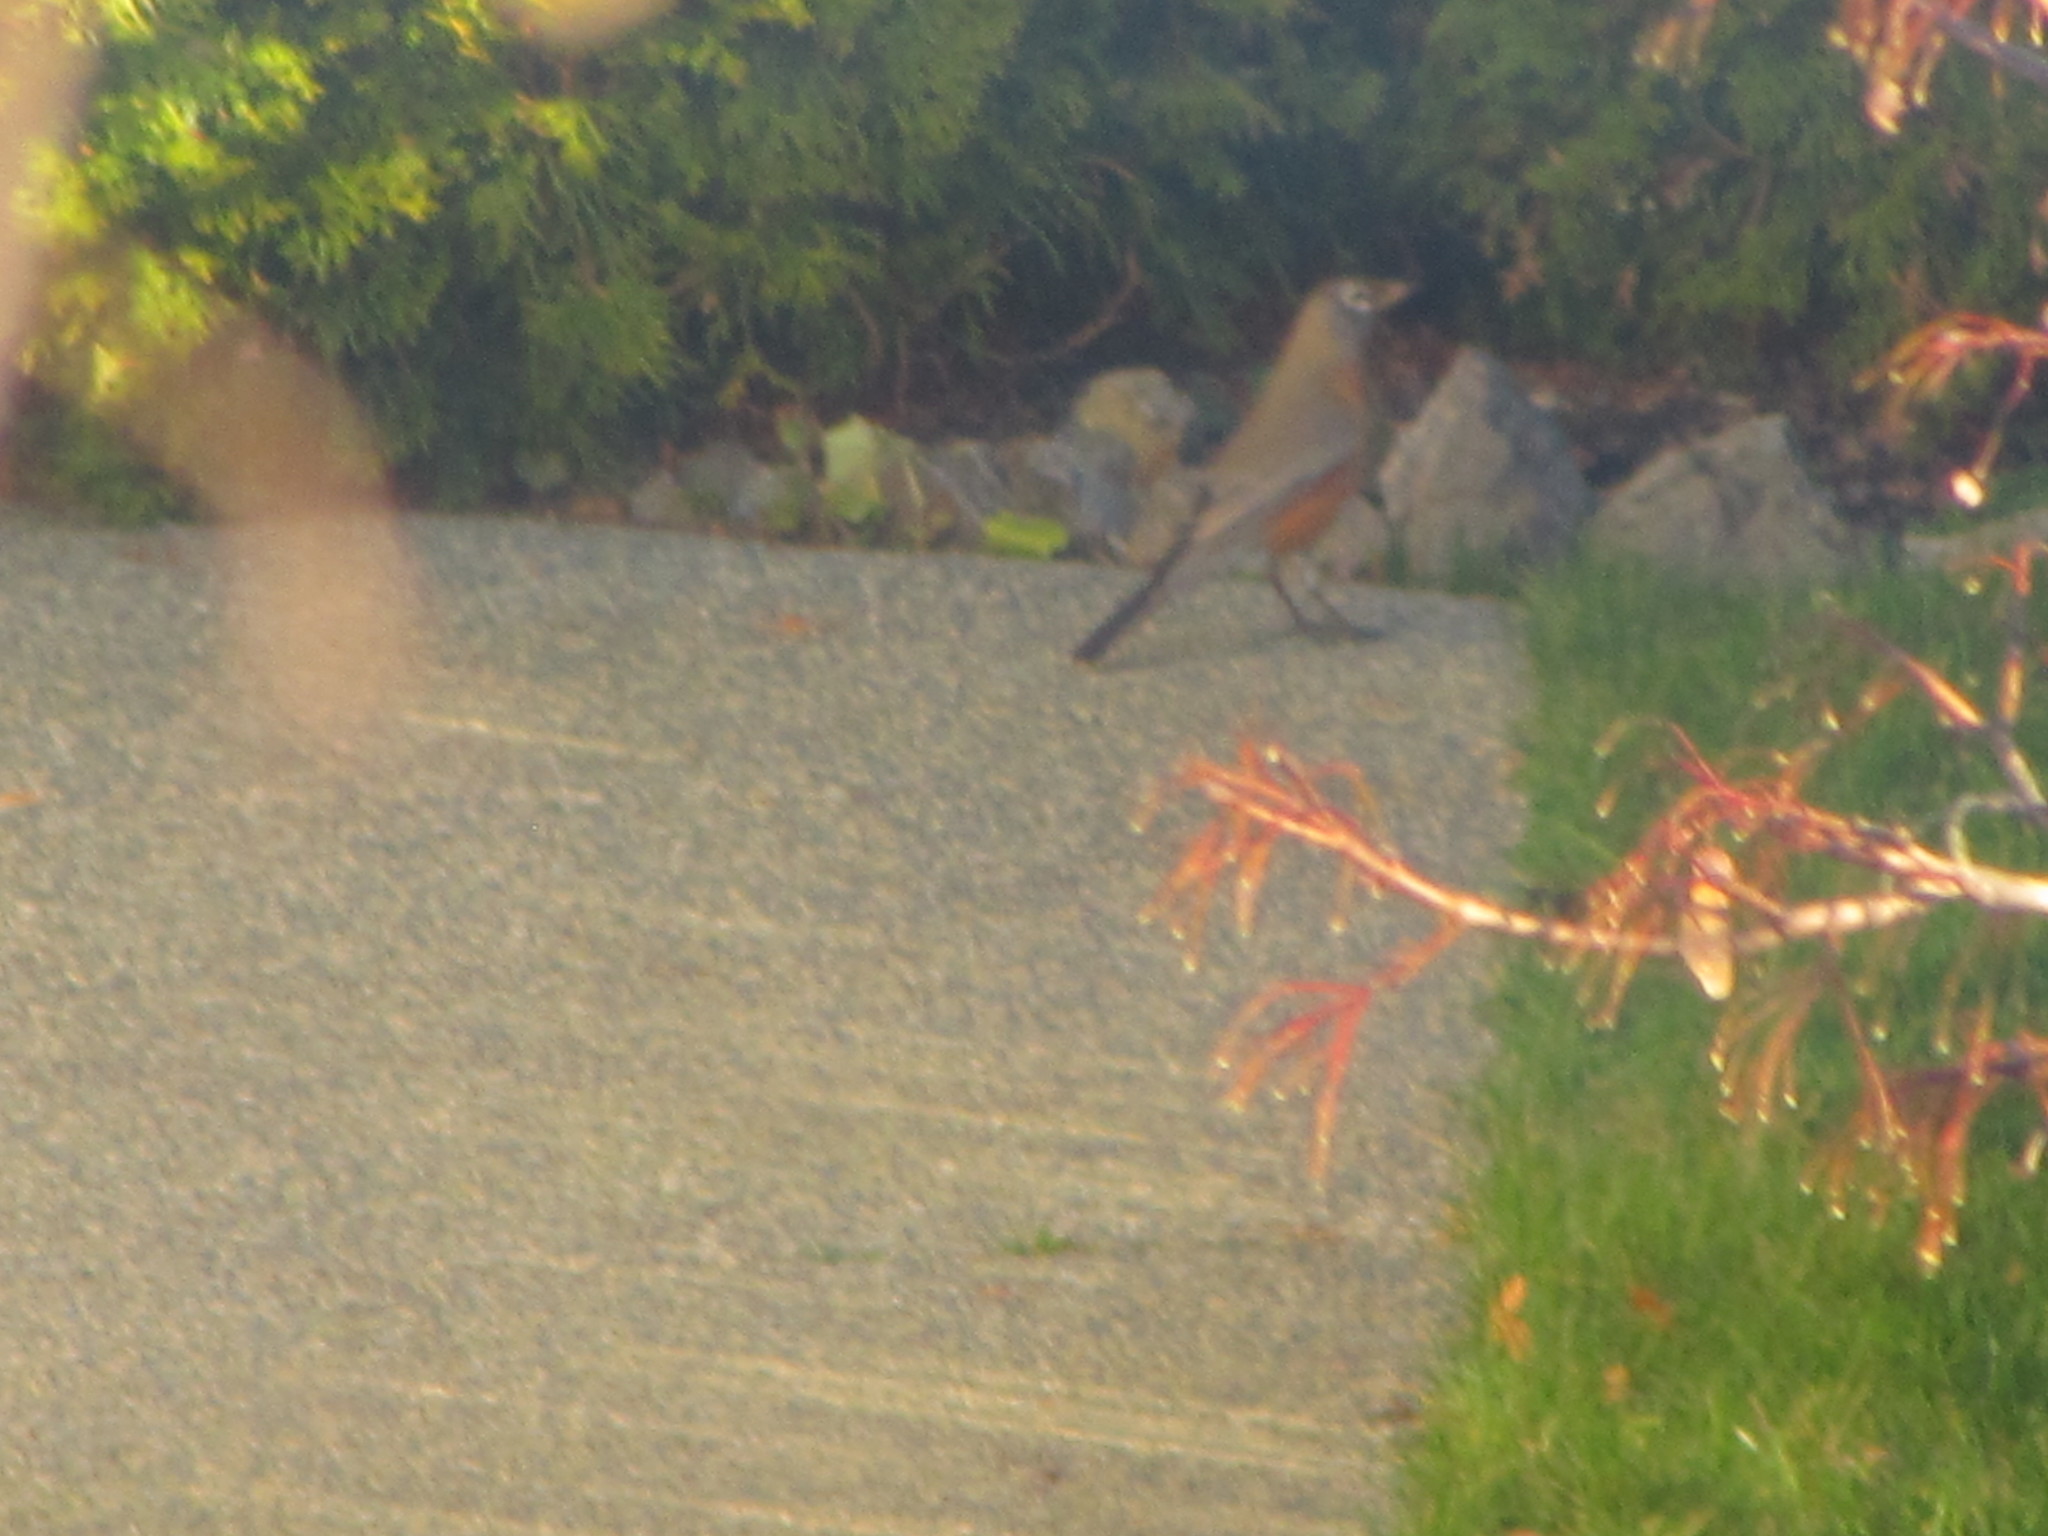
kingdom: Animalia
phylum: Chordata
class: Aves
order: Passeriformes
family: Turdidae
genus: Turdus
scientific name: Turdus migratorius
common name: American robin
